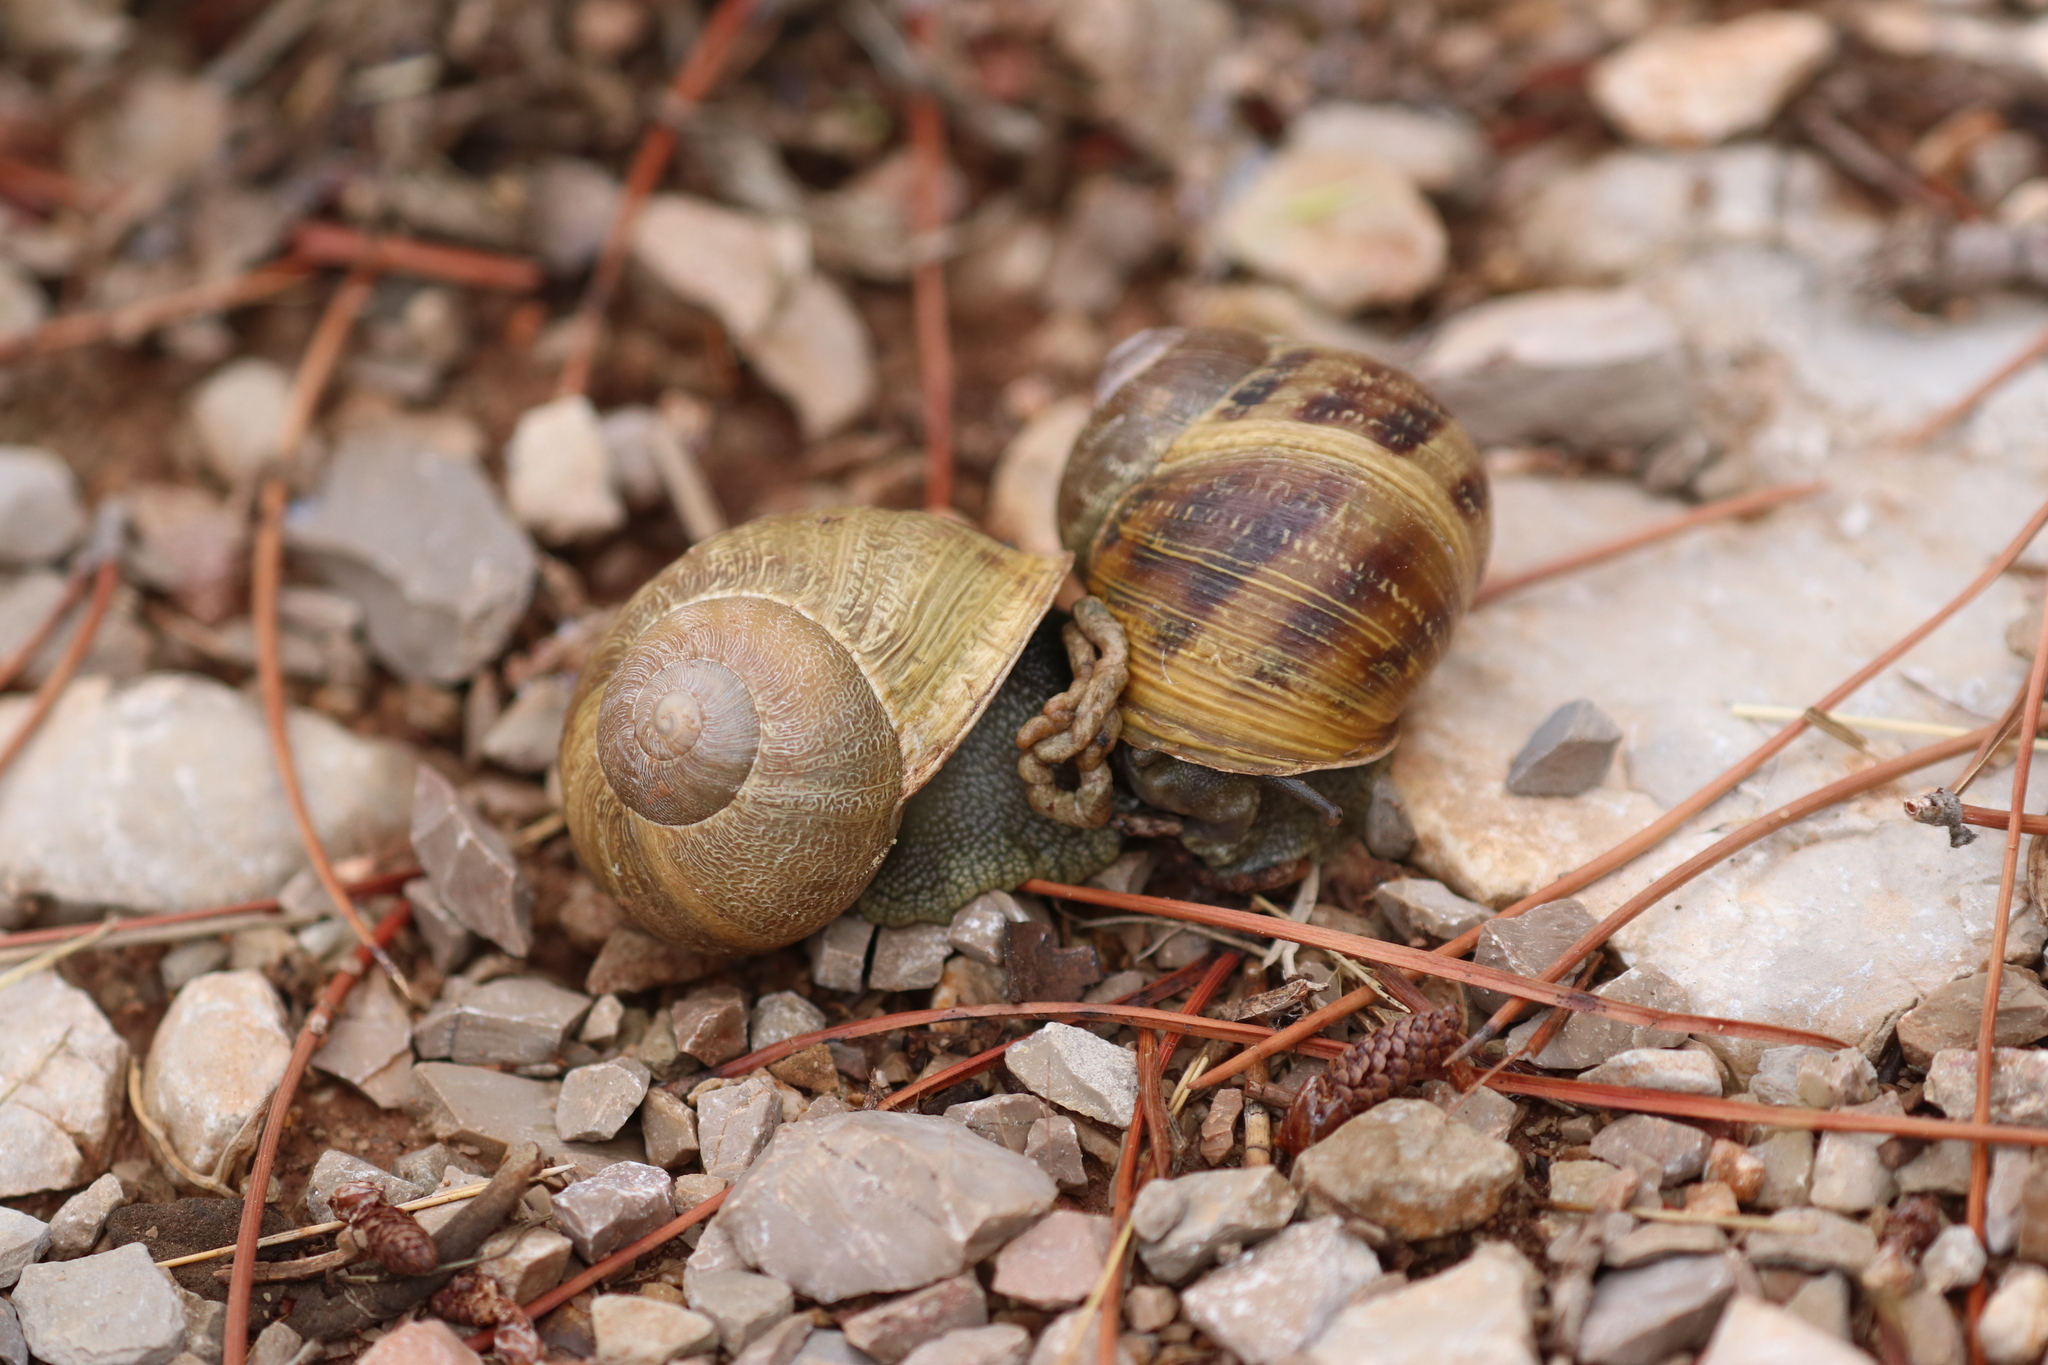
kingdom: Animalia
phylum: Mollusca
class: Gastropoda
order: Stylommatophora
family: Helicidae
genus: Cornu
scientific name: Cornu aspersum
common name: Brown garden snail
